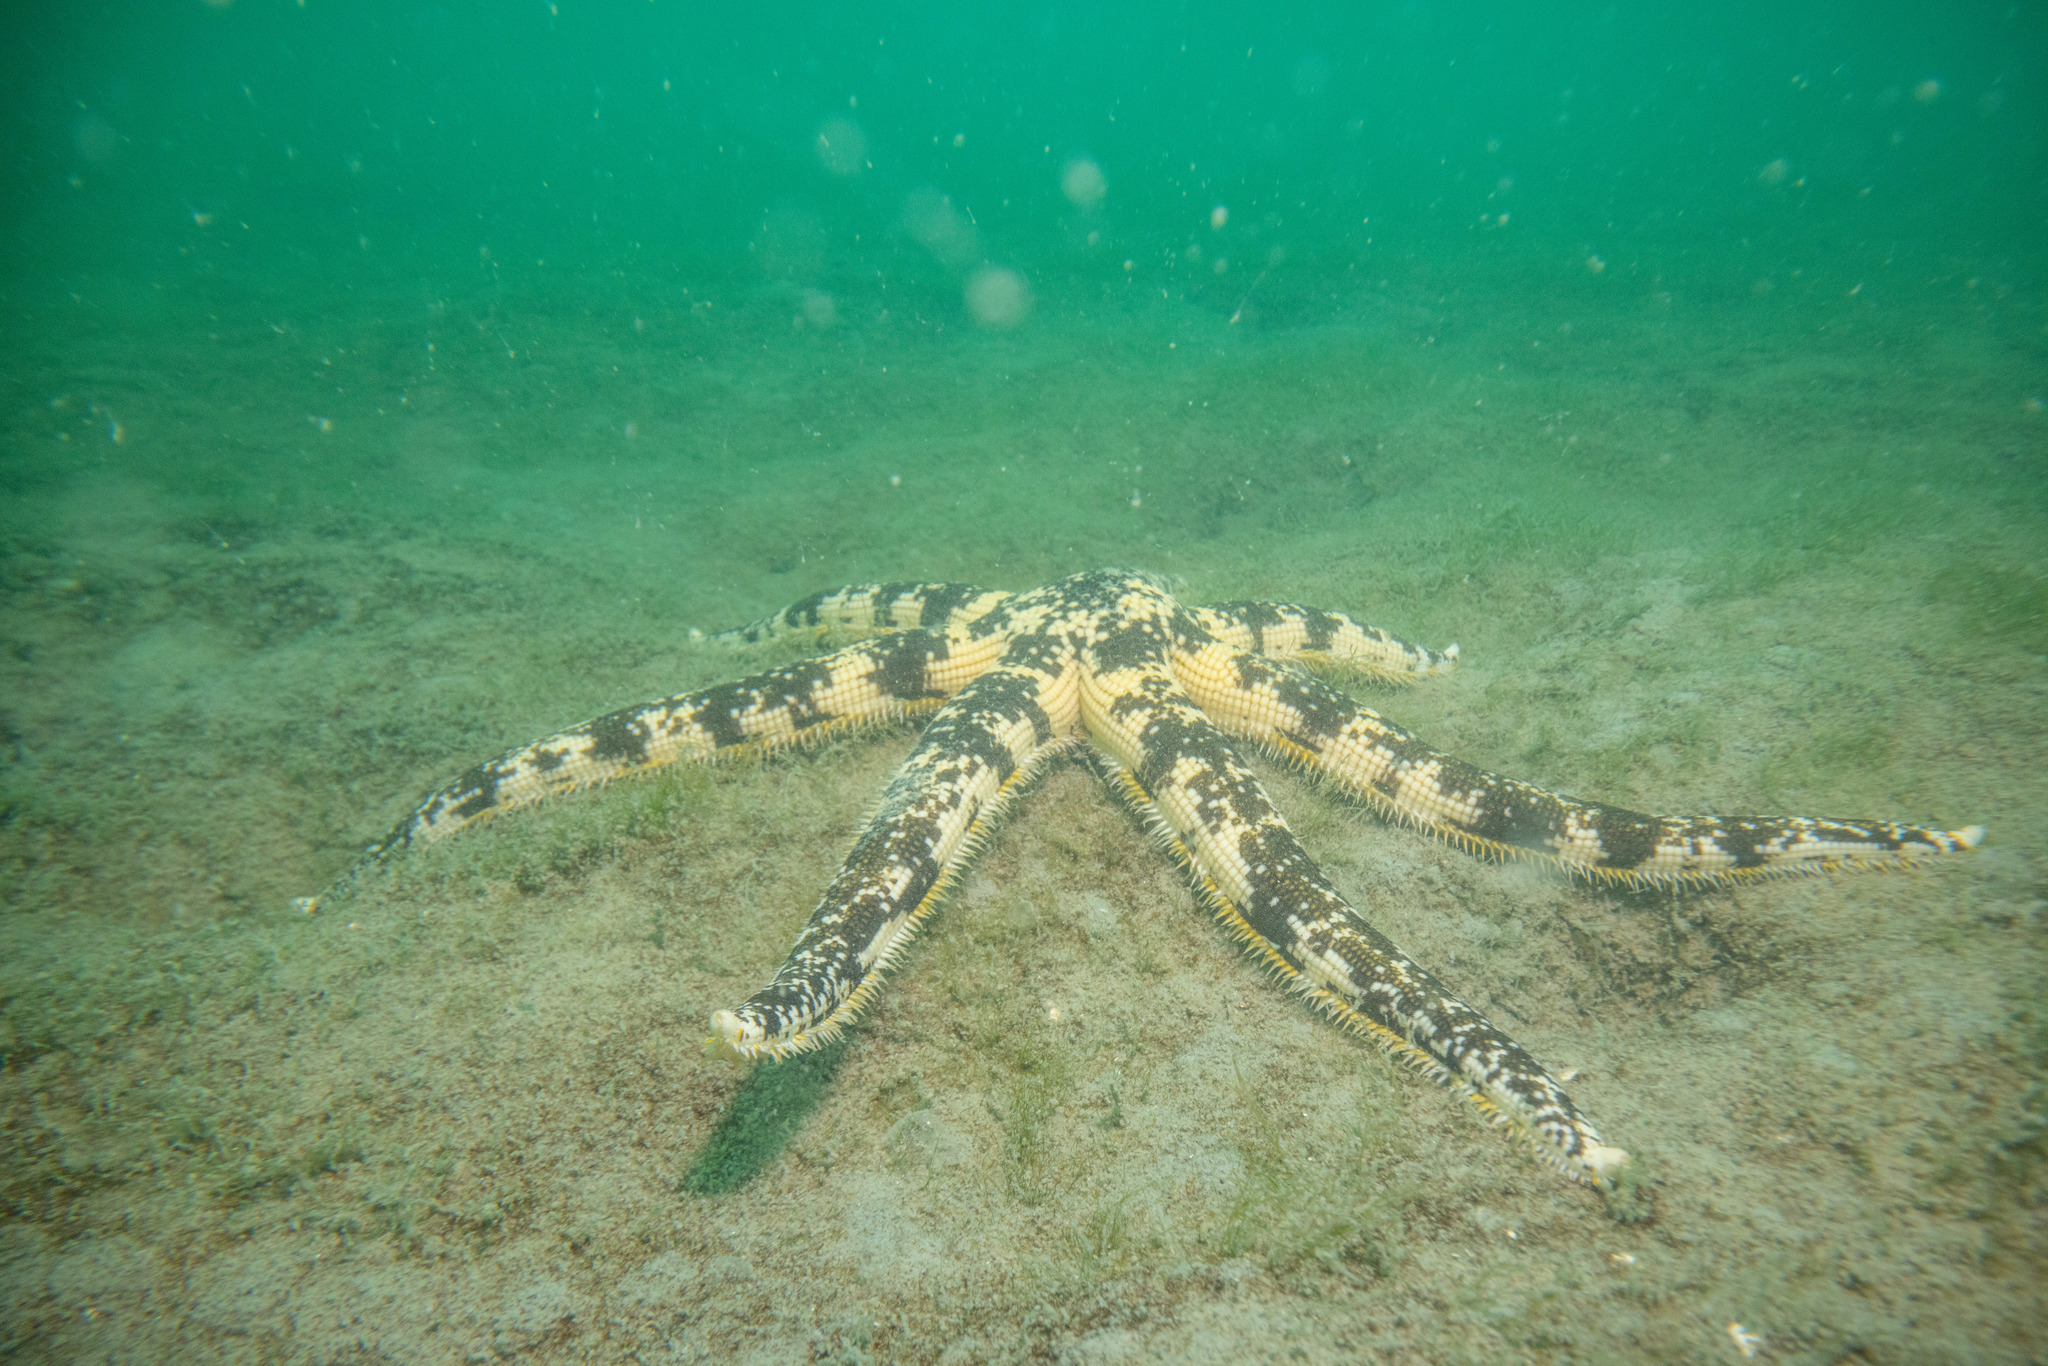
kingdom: Animalia
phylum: Echinodermata
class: Asteroidea
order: Paxillosida
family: Luidiidae
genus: Luidia
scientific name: Luidia australiae
